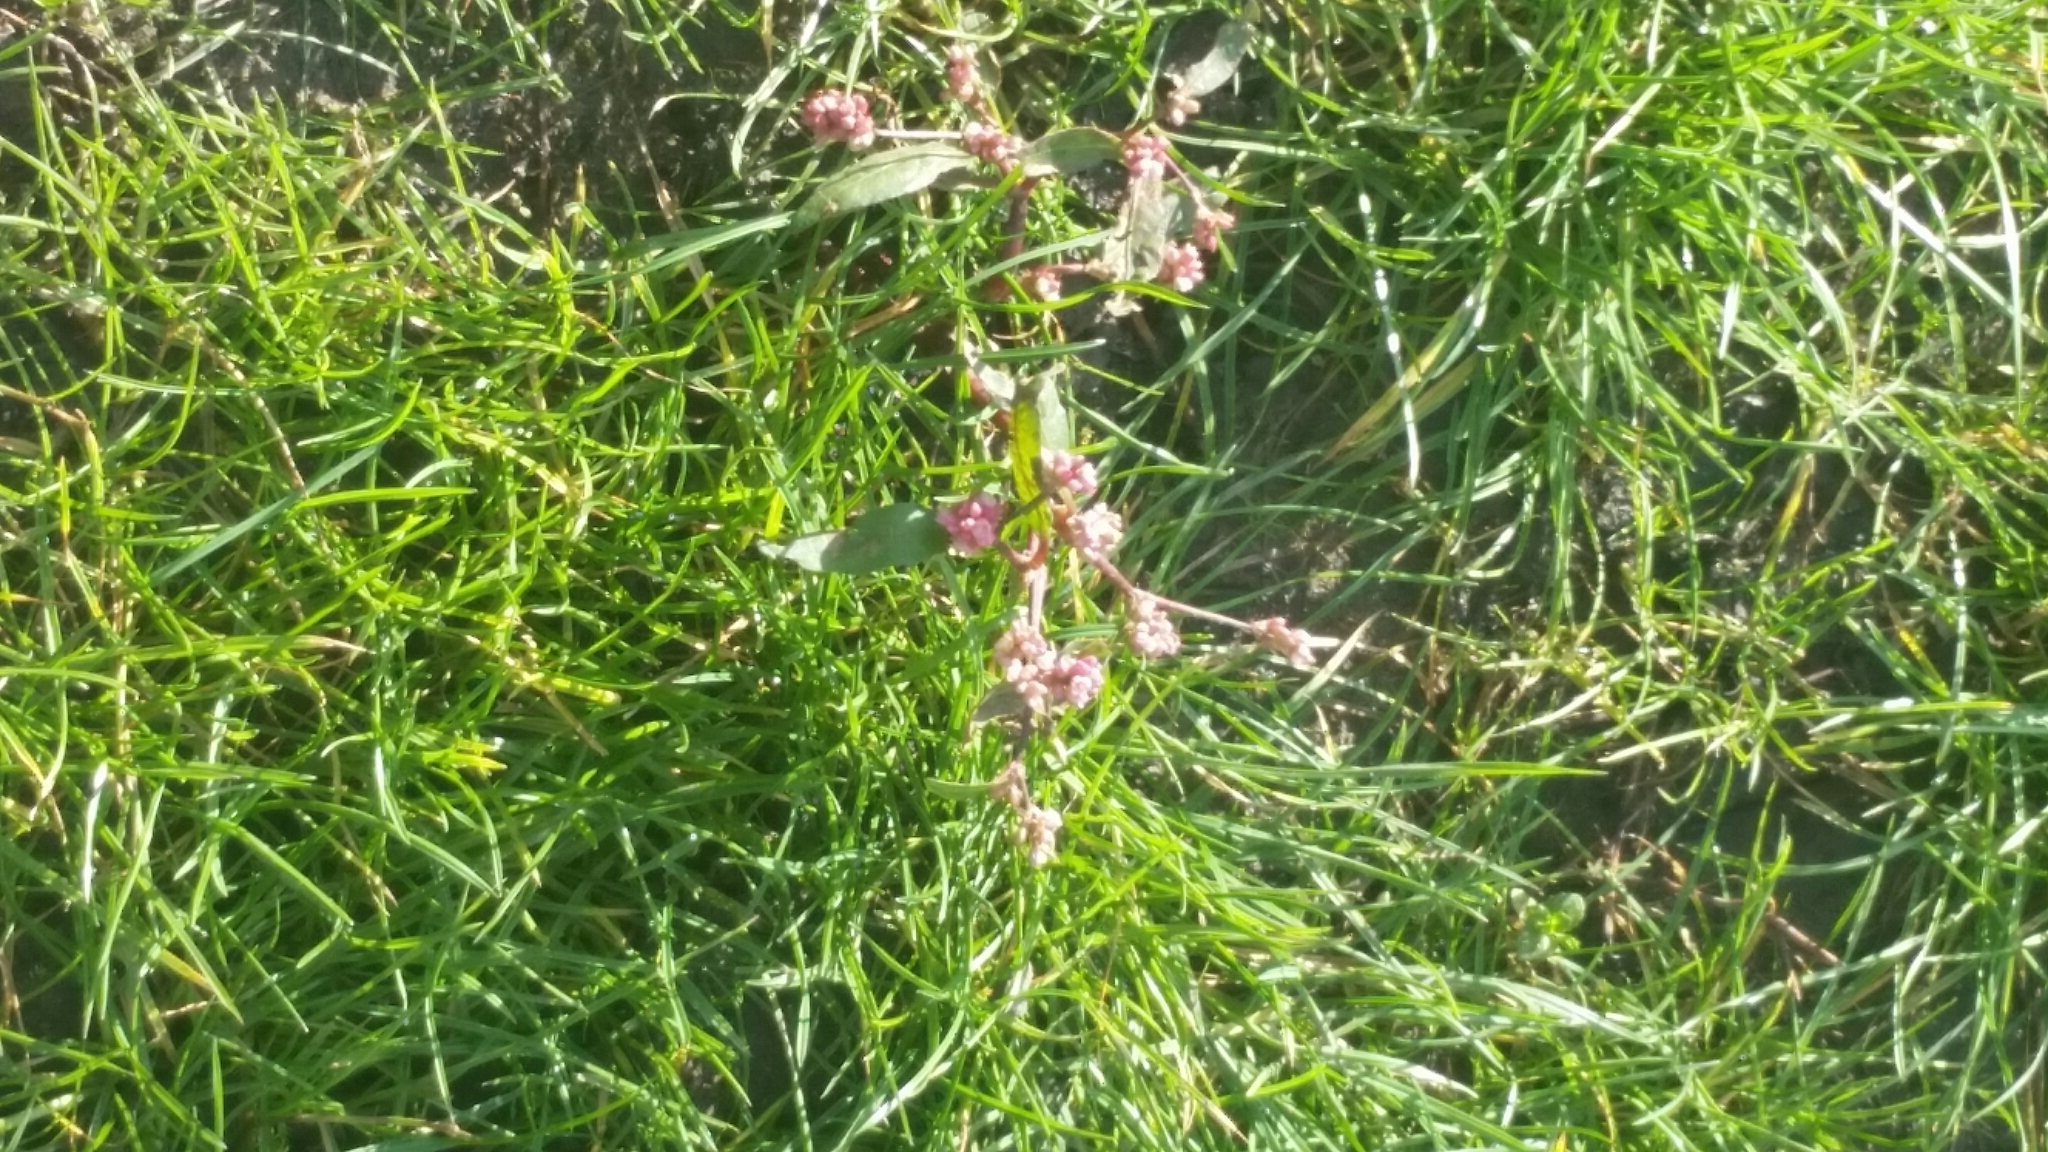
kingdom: Plantae
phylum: Tracheophyta
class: Magnoliopsida
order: Caryophyllales
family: Polygonaceae
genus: Persicaria
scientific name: Persicaria maculosa
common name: Redshank
